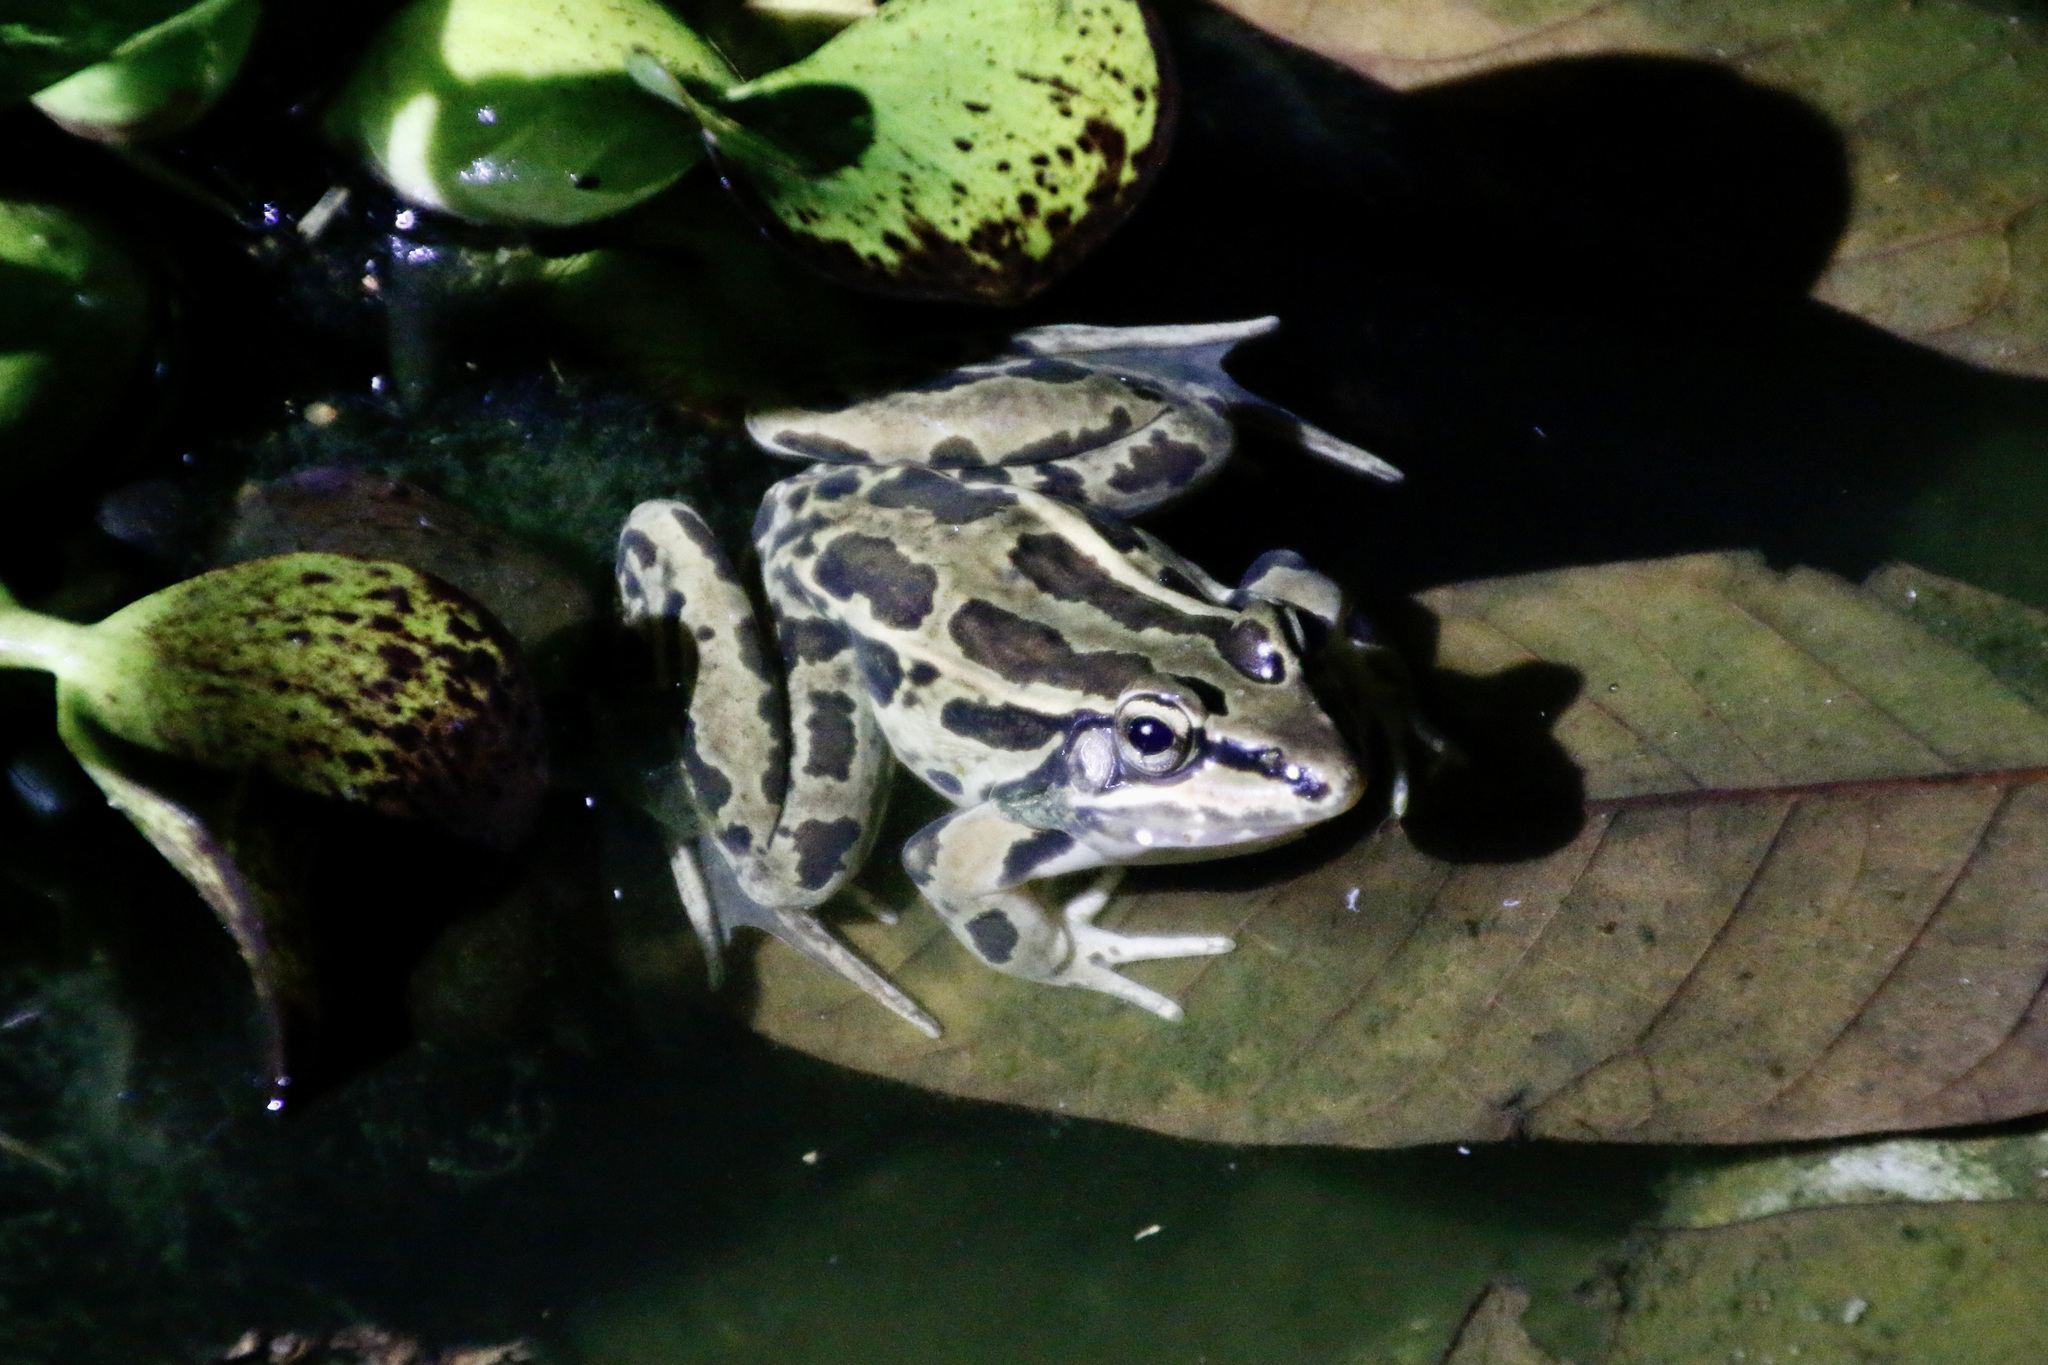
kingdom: Animalia
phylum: Chordata
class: Amphibia
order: Anura
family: Ranidae
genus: Lithobates
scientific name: Lithobates forreri
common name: Forrer's grass frog
